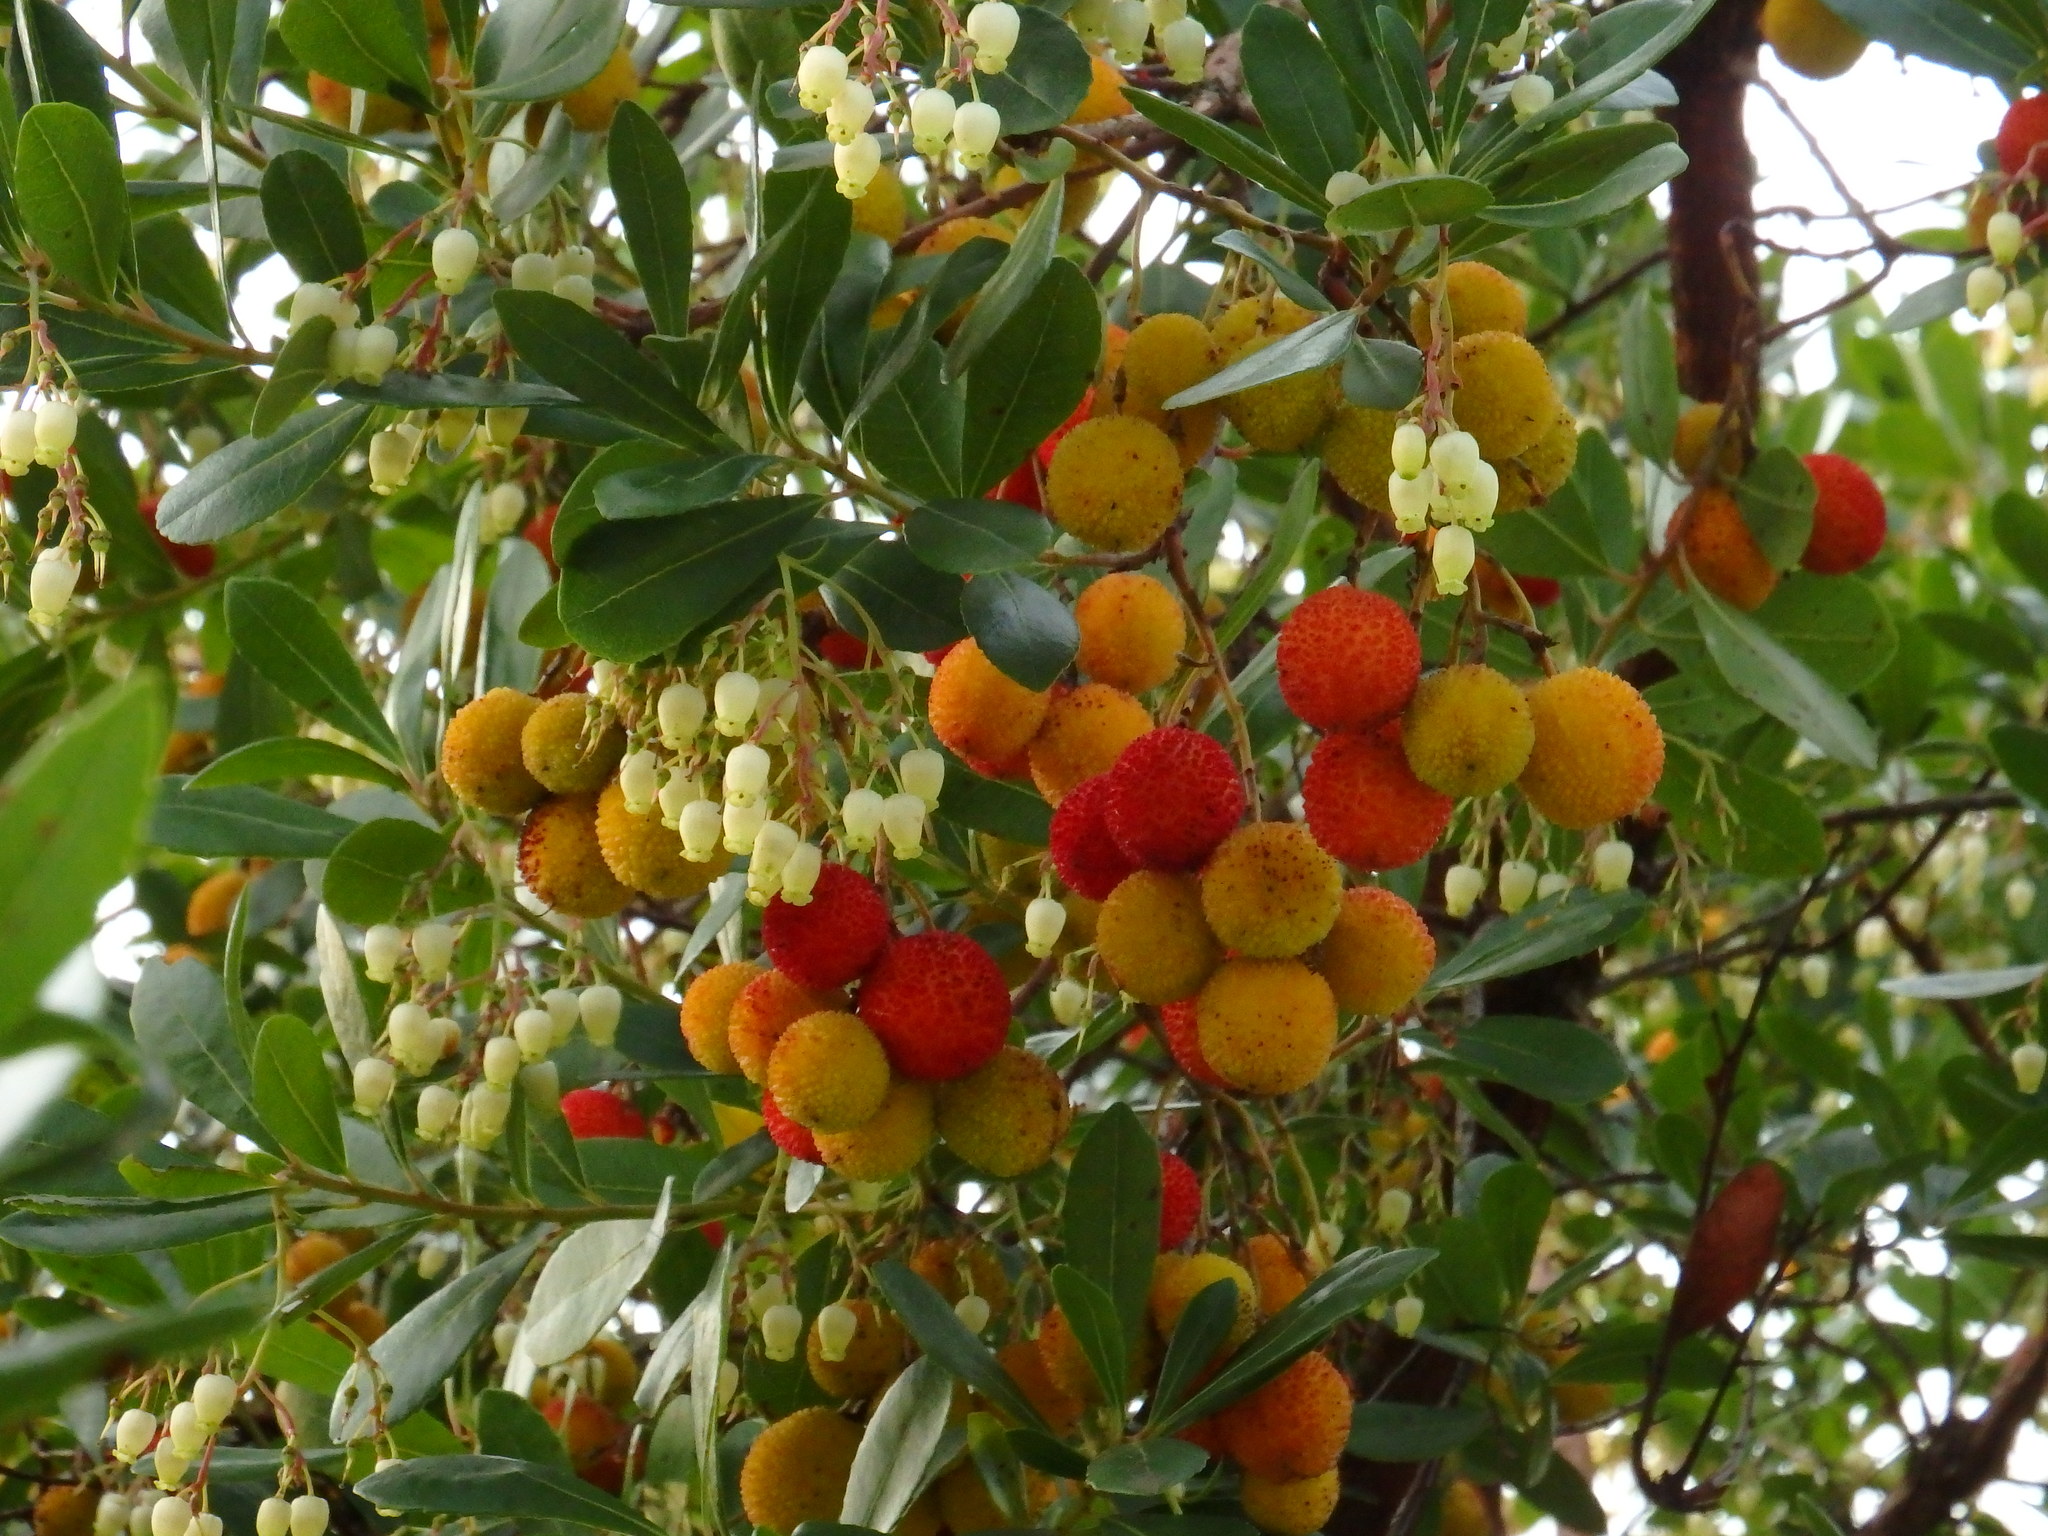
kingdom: Plantae
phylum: Tracheophyta
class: Magnoliopsida
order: Ericales
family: Ericaceae
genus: Arbutus
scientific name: Arbutus unedo
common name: Strawberry-tree
